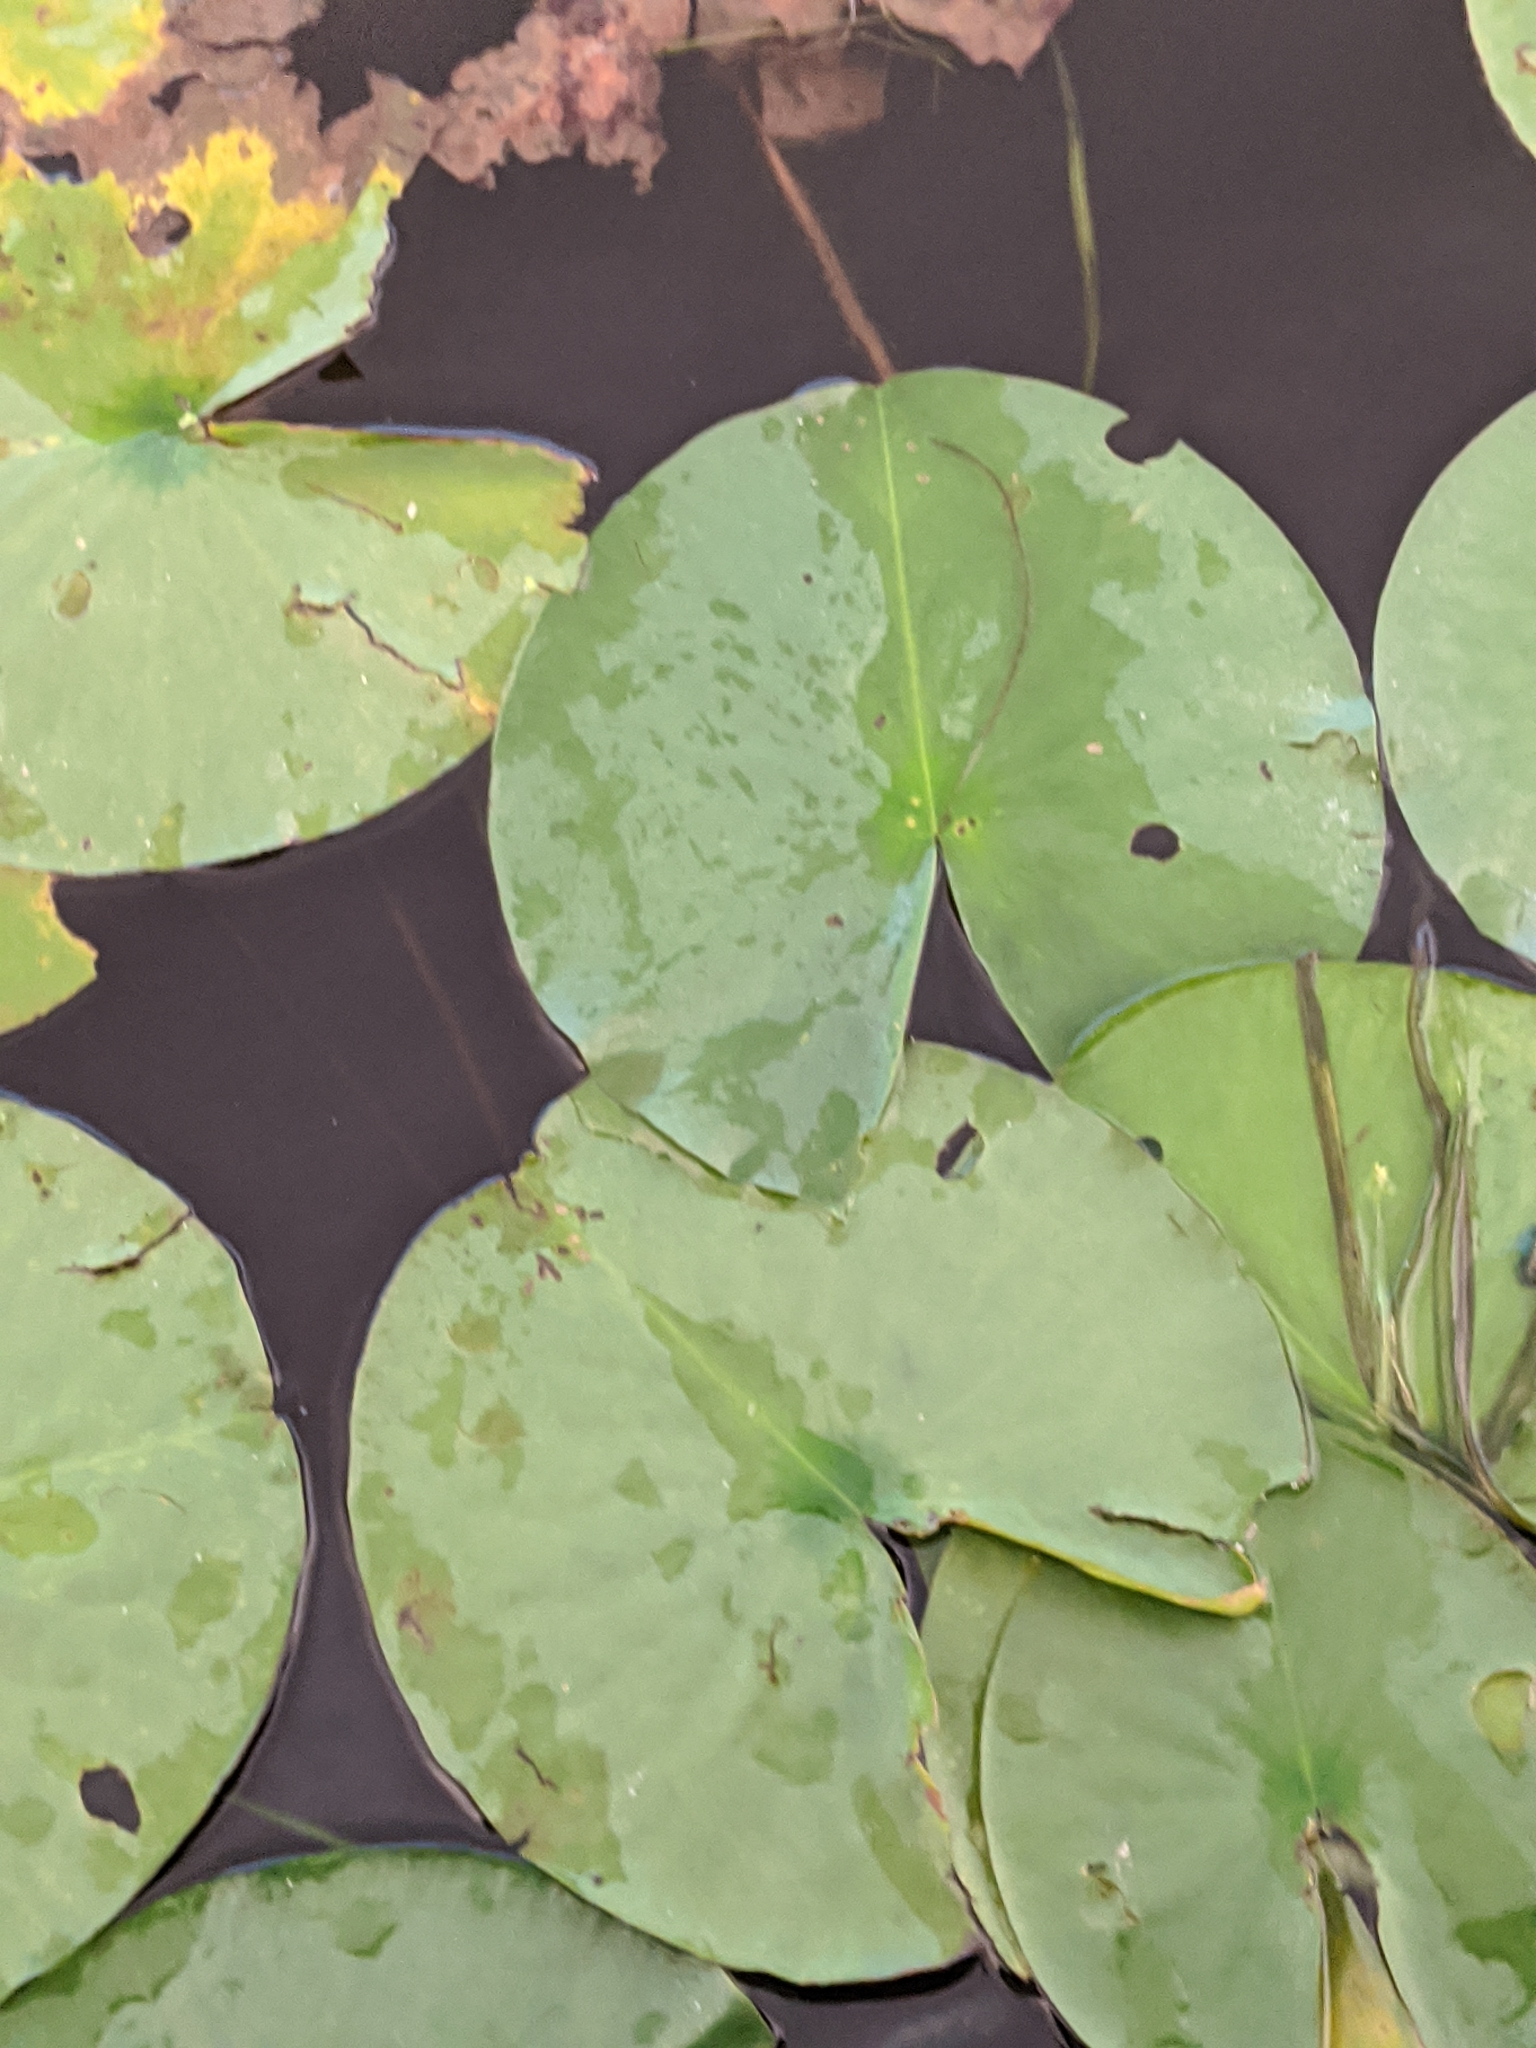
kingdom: Plantae
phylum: Tracheophyta
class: Magnoliopsida
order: Nymphaeales
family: Nymphaeaceae
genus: Nymphaea
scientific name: Nymphaea odorata
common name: Fragrant water-lily
